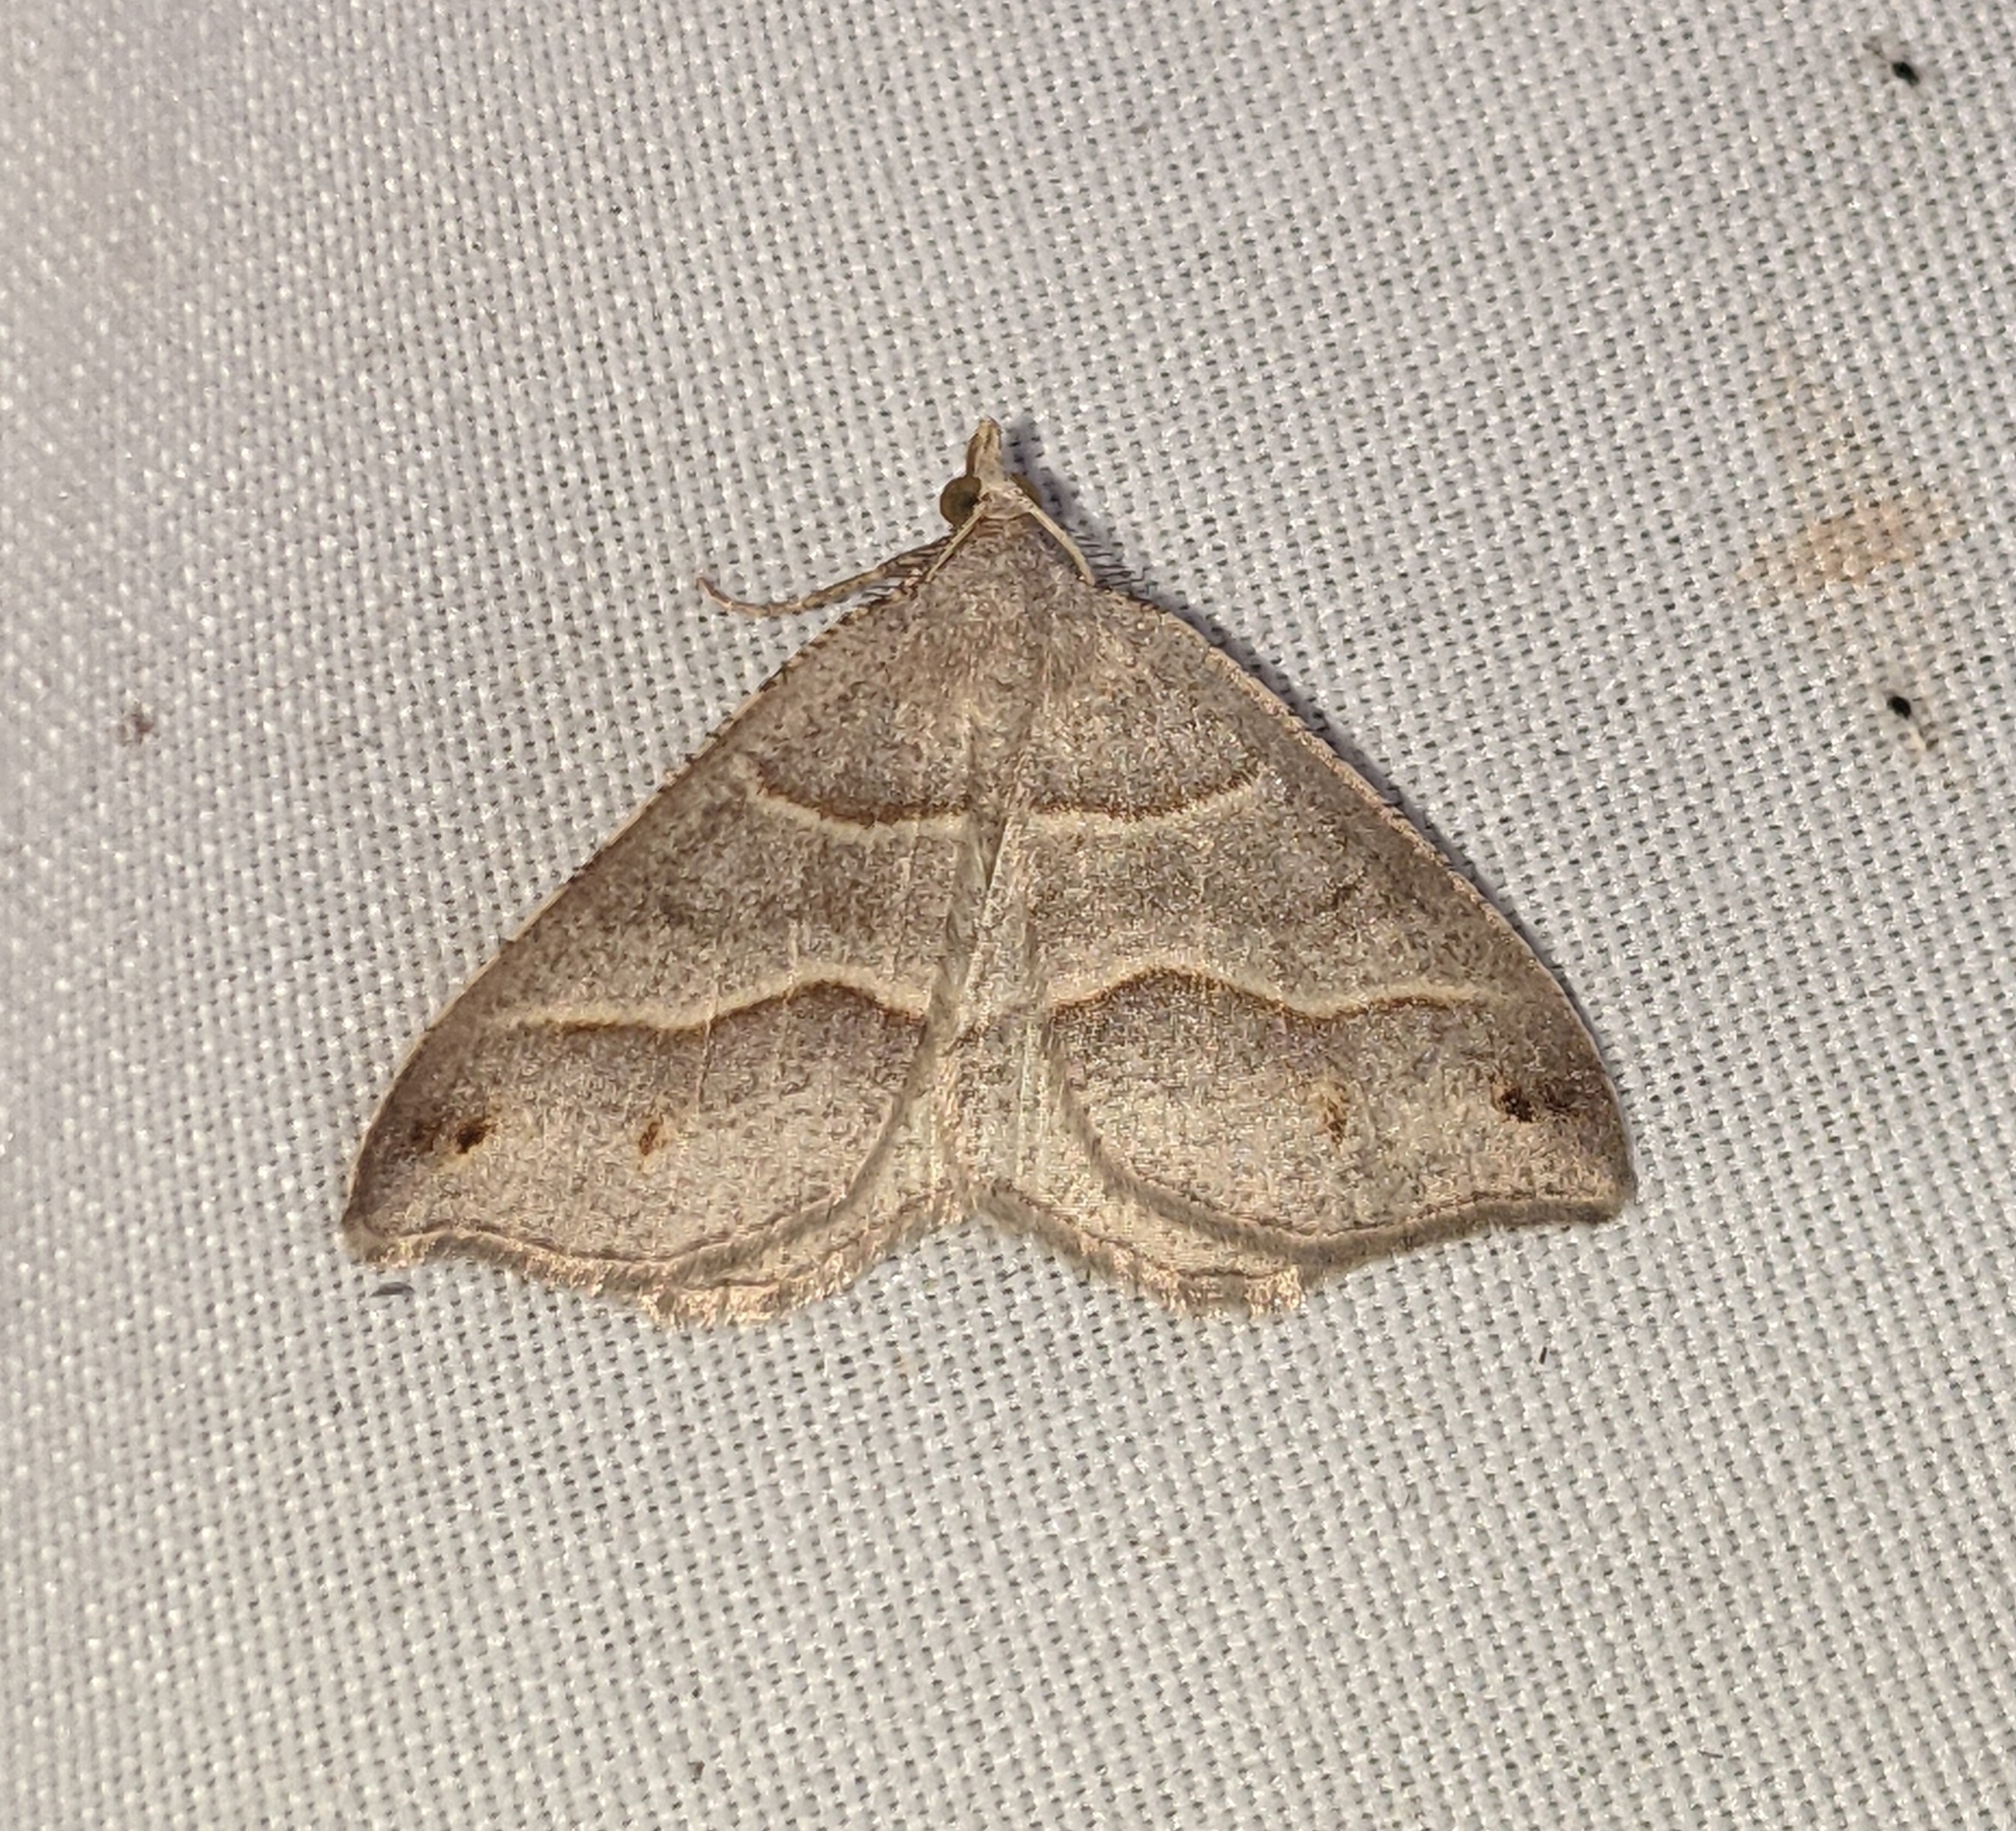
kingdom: Animalia
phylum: Arthropoda
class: Insecta
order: Lepidoptera
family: Geometridae
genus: Macaria
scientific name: Macaria lorquinaria
